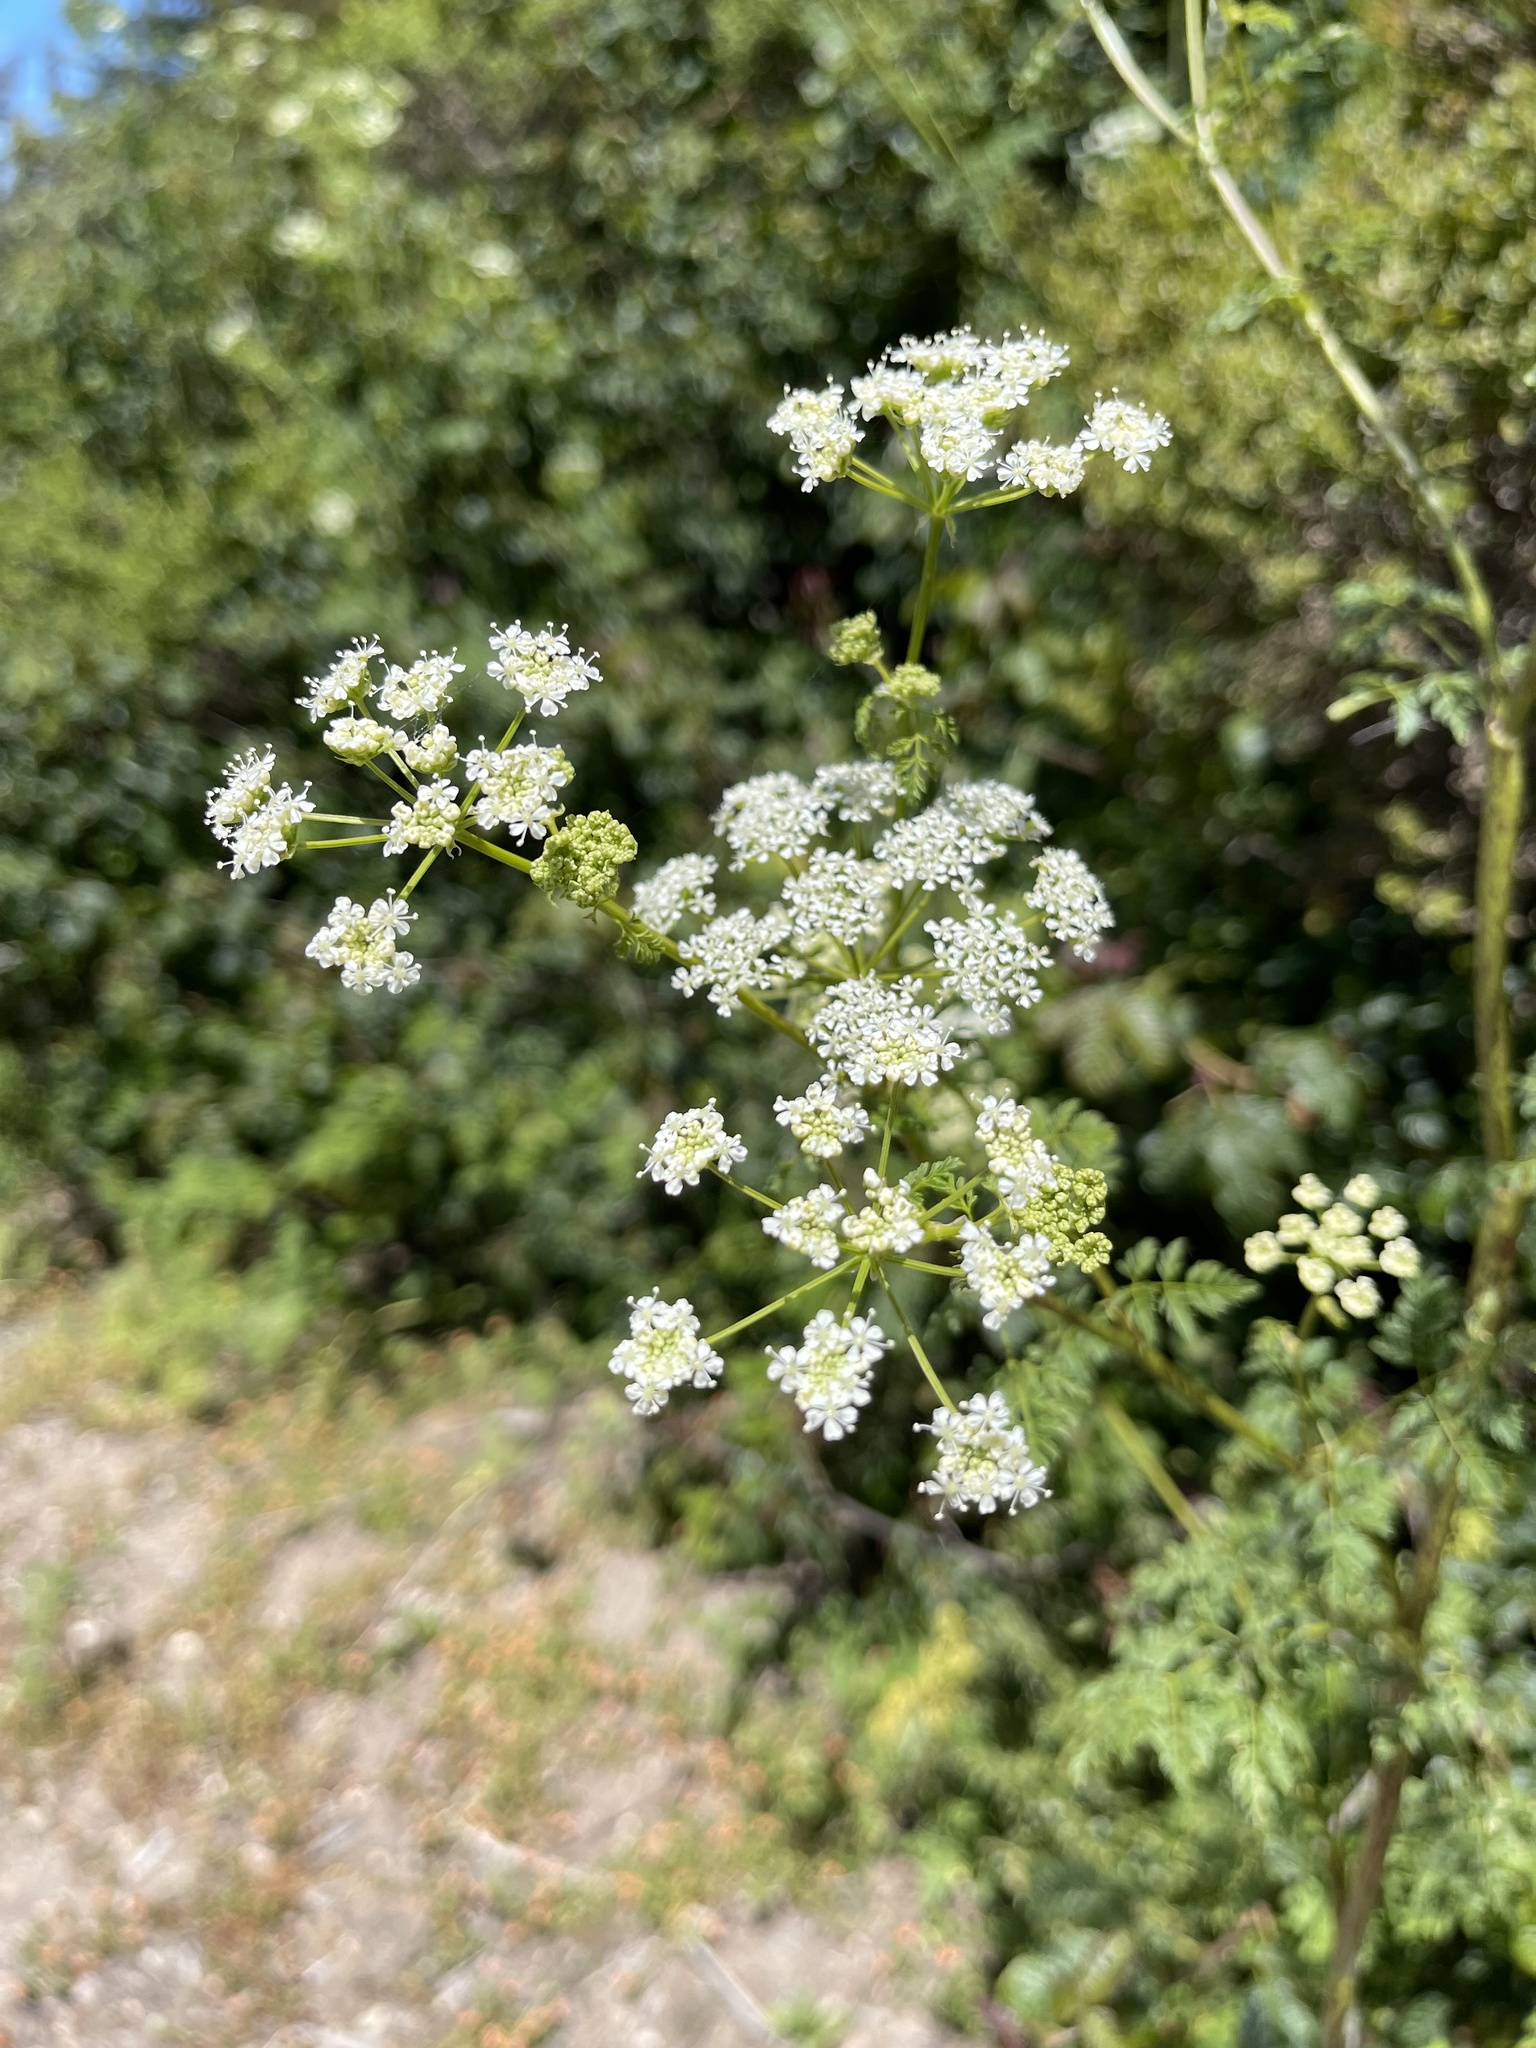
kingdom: Plantae
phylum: Tracheophyta
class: Magnoliopsida
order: Apiales
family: Apiaceae
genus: Conium
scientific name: Conium maculatum
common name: Hemlock
